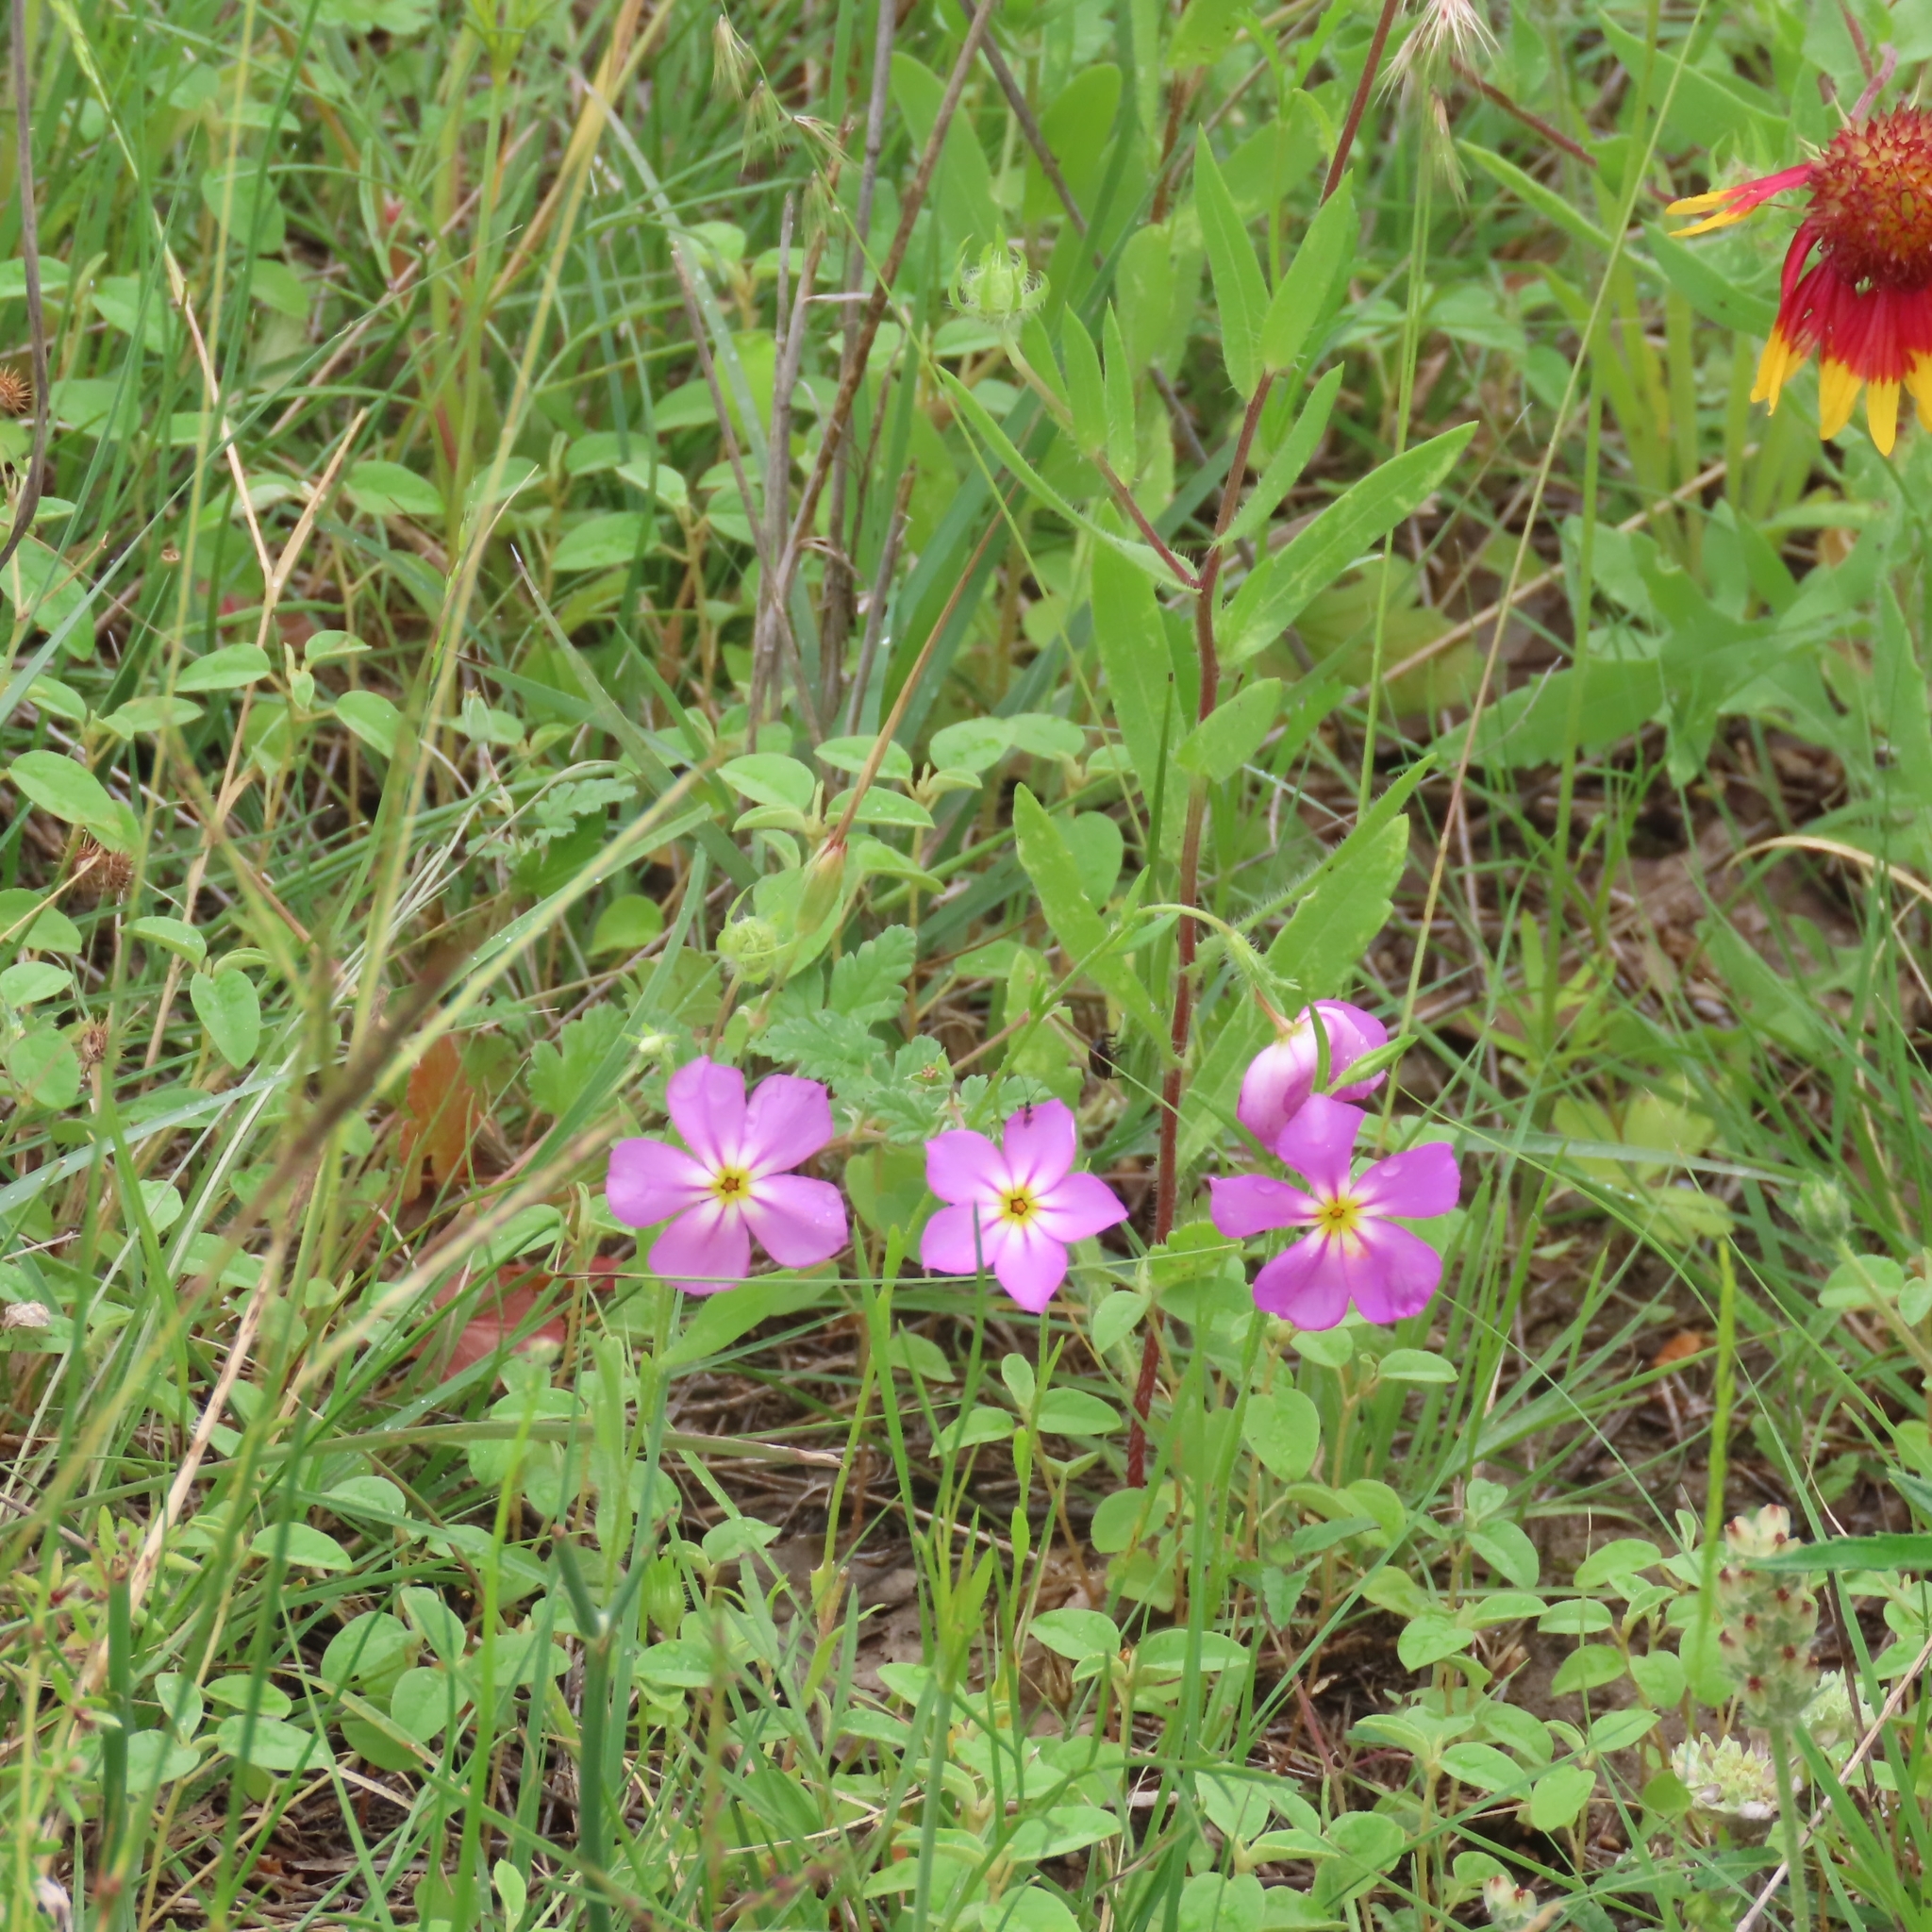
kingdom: Plantae
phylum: Tracheophyta
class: Magnoliopsida
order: Ericales
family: Polemoniaceae
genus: Phlox
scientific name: Phlox roemeriana
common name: Roemer's phlox
